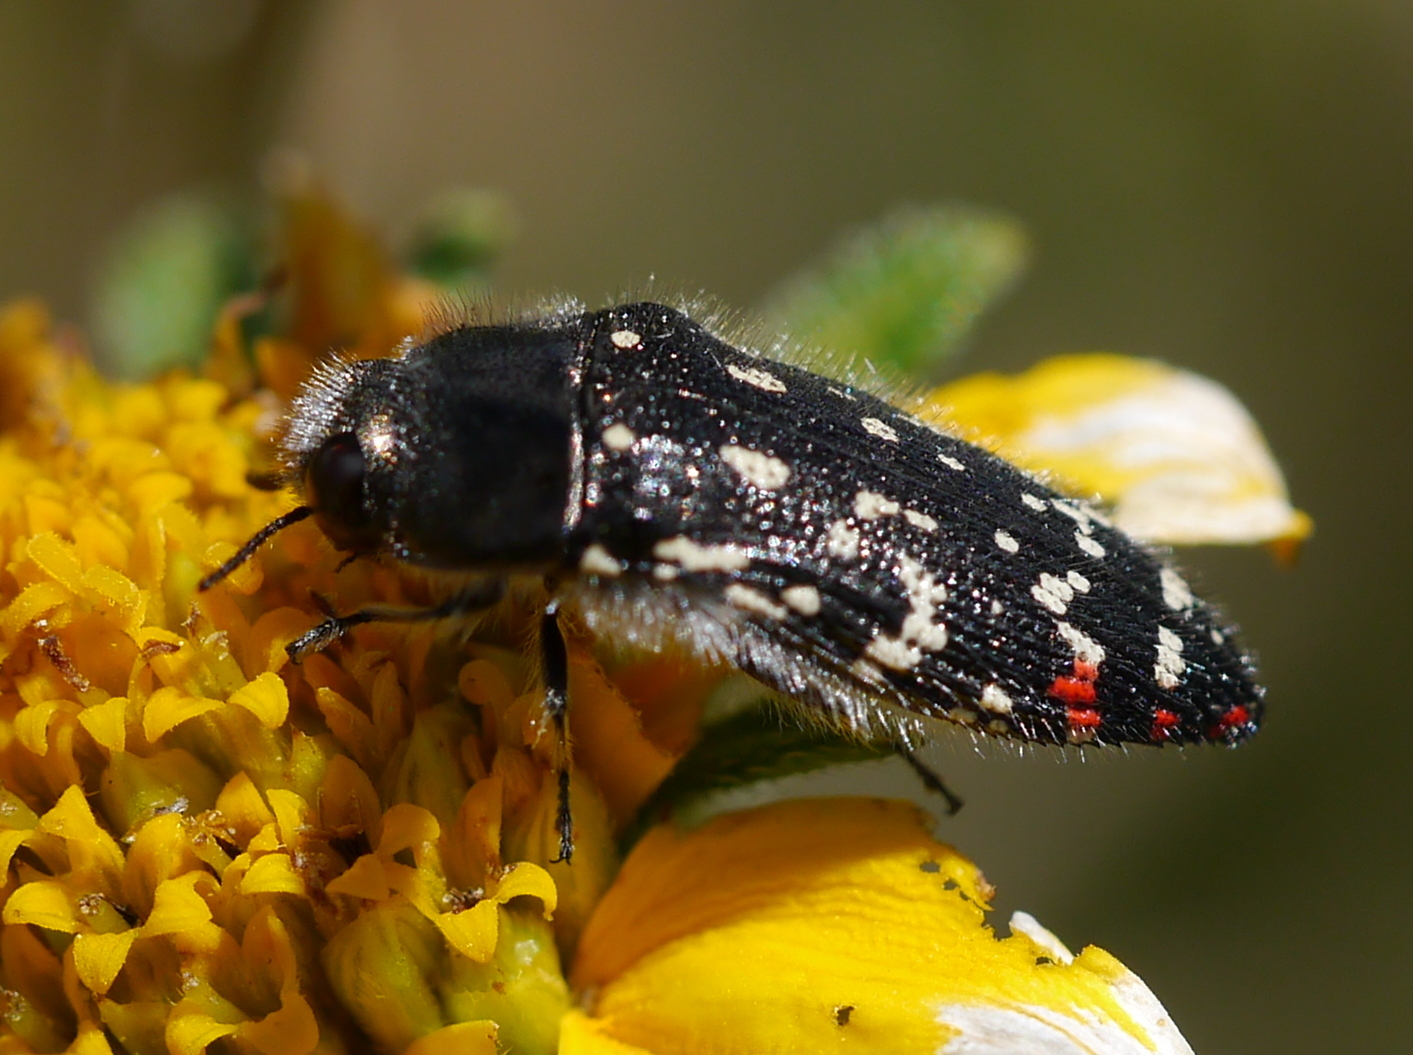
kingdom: Animalia
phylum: Arthropoda
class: Insecta
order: Coleoptera
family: Buprestidae
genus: Acmaeodera
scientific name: Acmaeodera rubronotata
